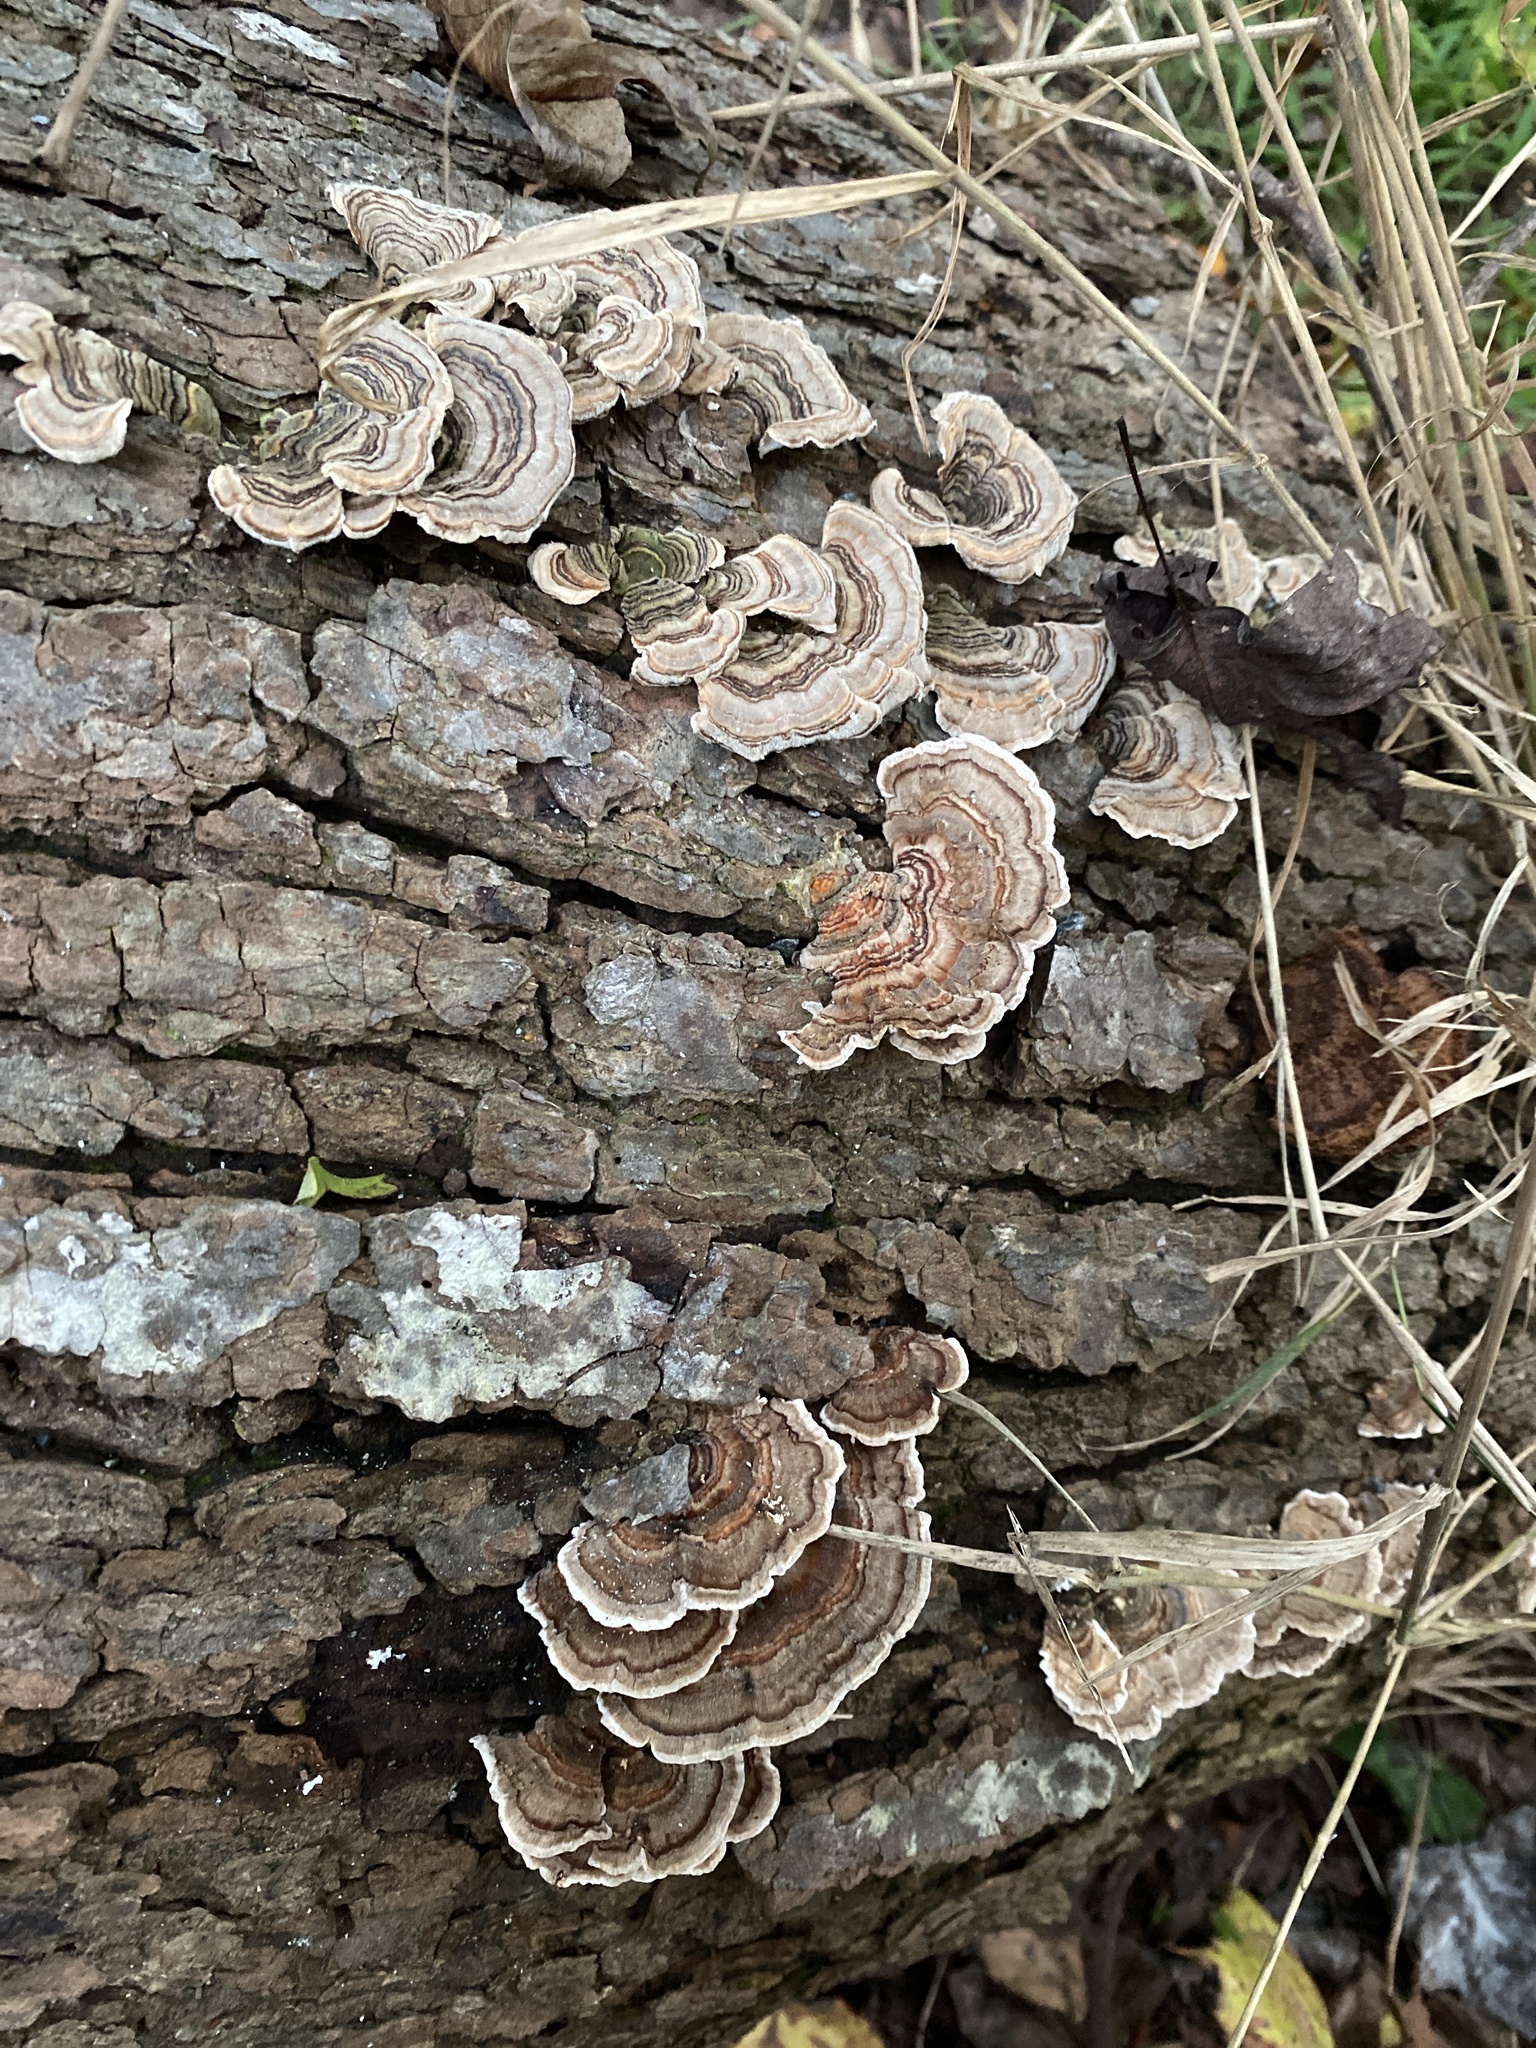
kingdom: Fungi
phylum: Basidiomycota
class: Agaricomycetes
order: Polyporales
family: Polyporaceae
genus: Trametes
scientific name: Trametes versicolor
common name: Turkeytail
